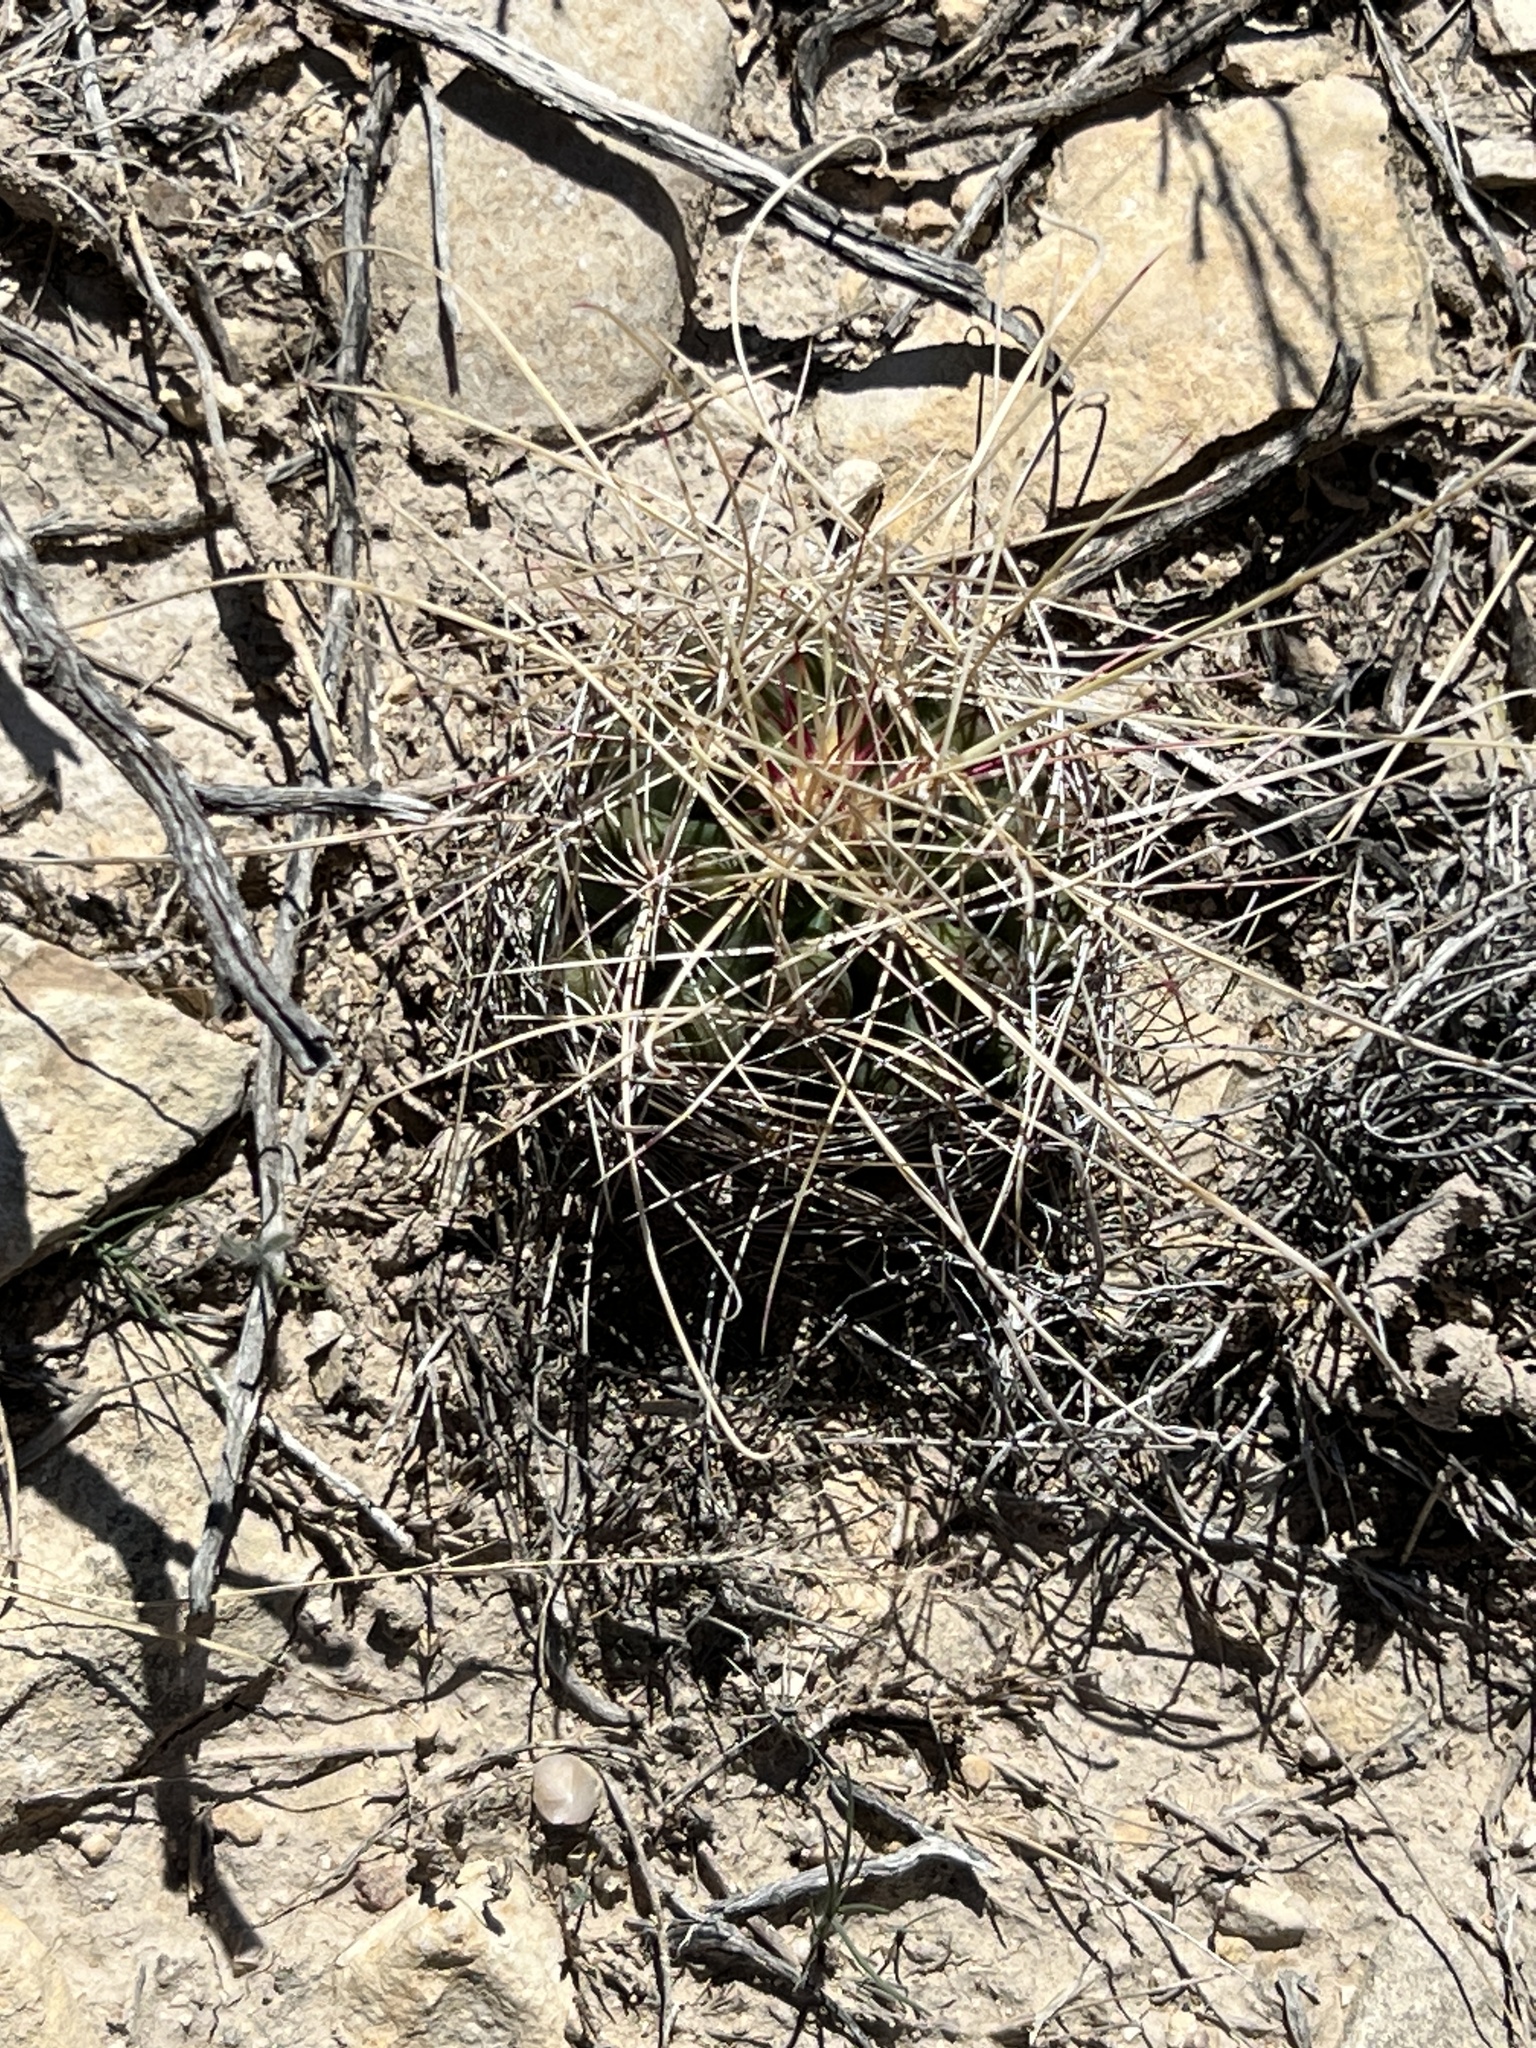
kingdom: Plantae
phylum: Tracheophyta
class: Magnoliopsida
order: Caryophyllales
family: Cactaceae
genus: Bisnaga
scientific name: Bisnaga hamatacantha
